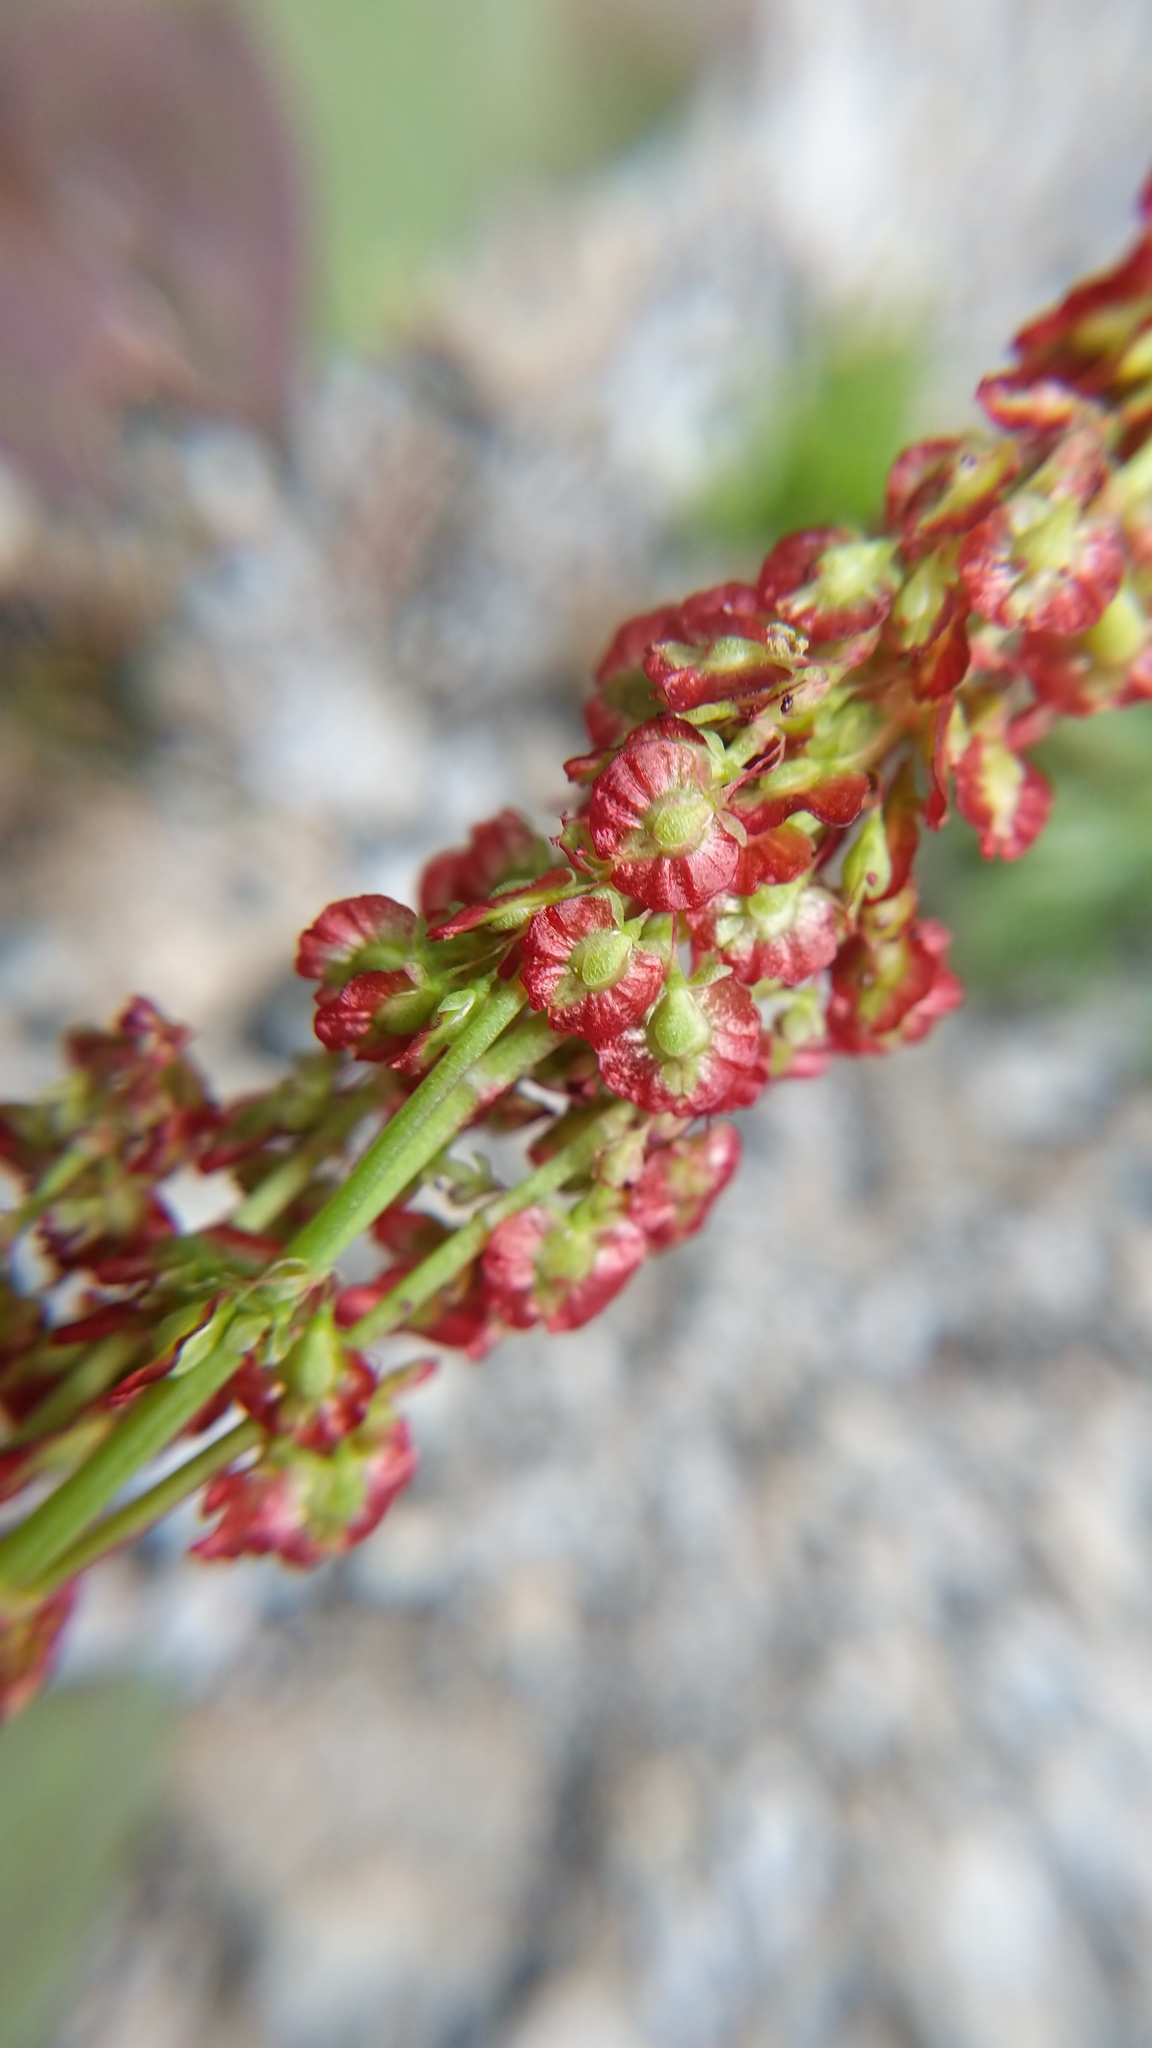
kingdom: Plantae
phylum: Tracheophyta
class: Magnoliopsida
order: Caryophyllales
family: Polygonaceae
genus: Oxyria
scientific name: Oxyria digyna
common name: Alpine mountain-sorrel
